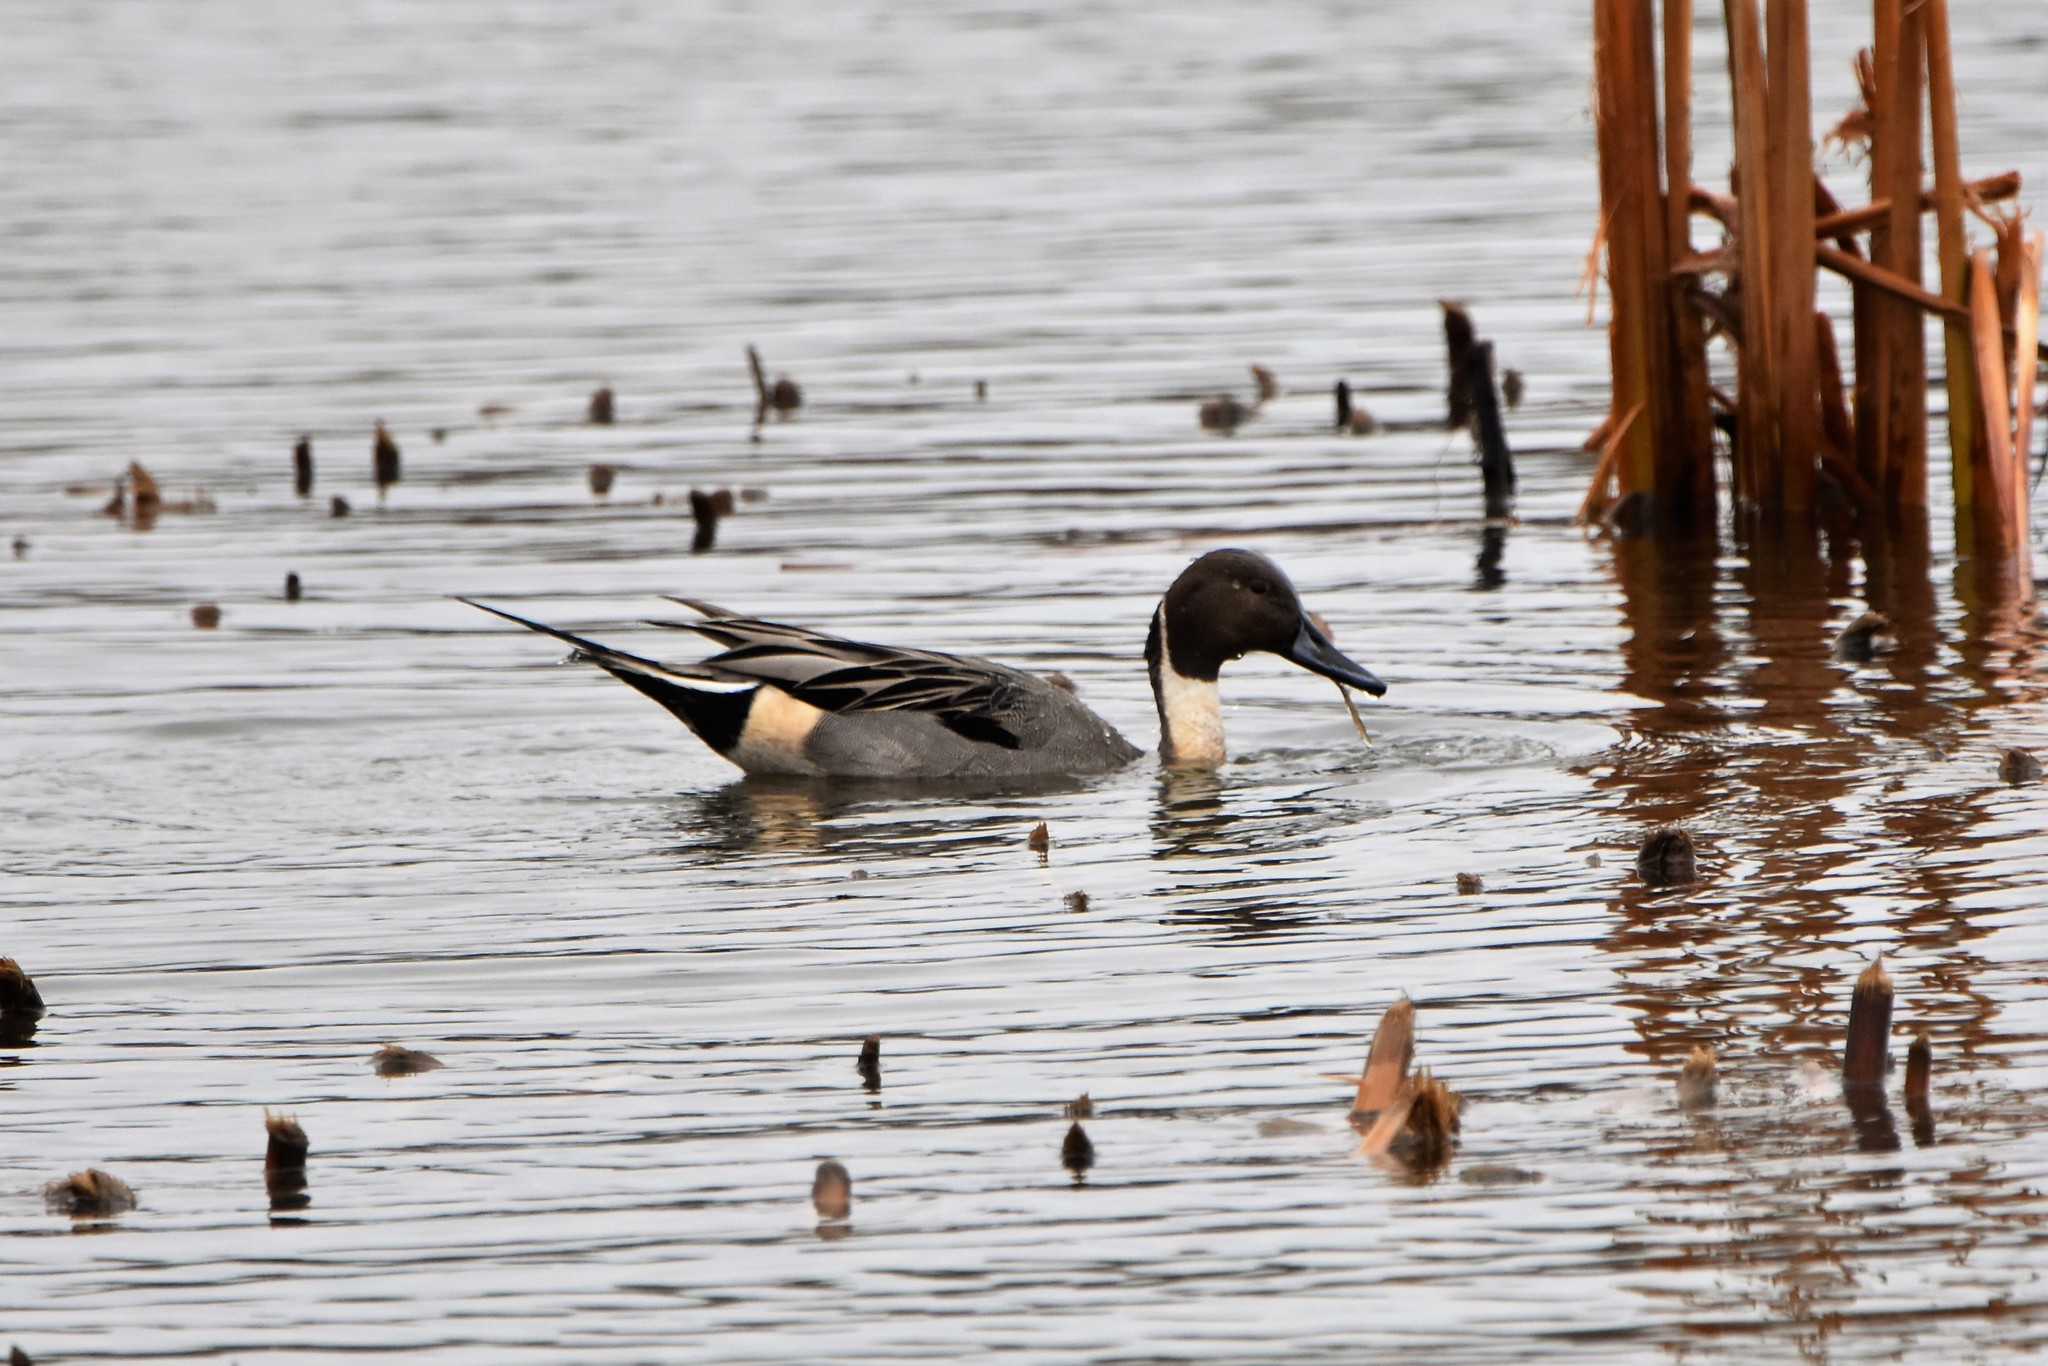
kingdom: Animalia
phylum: Chordata
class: Aves
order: Anseriformes
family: Anatidae
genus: Anas
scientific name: Anas acuta
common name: Northern pintail
